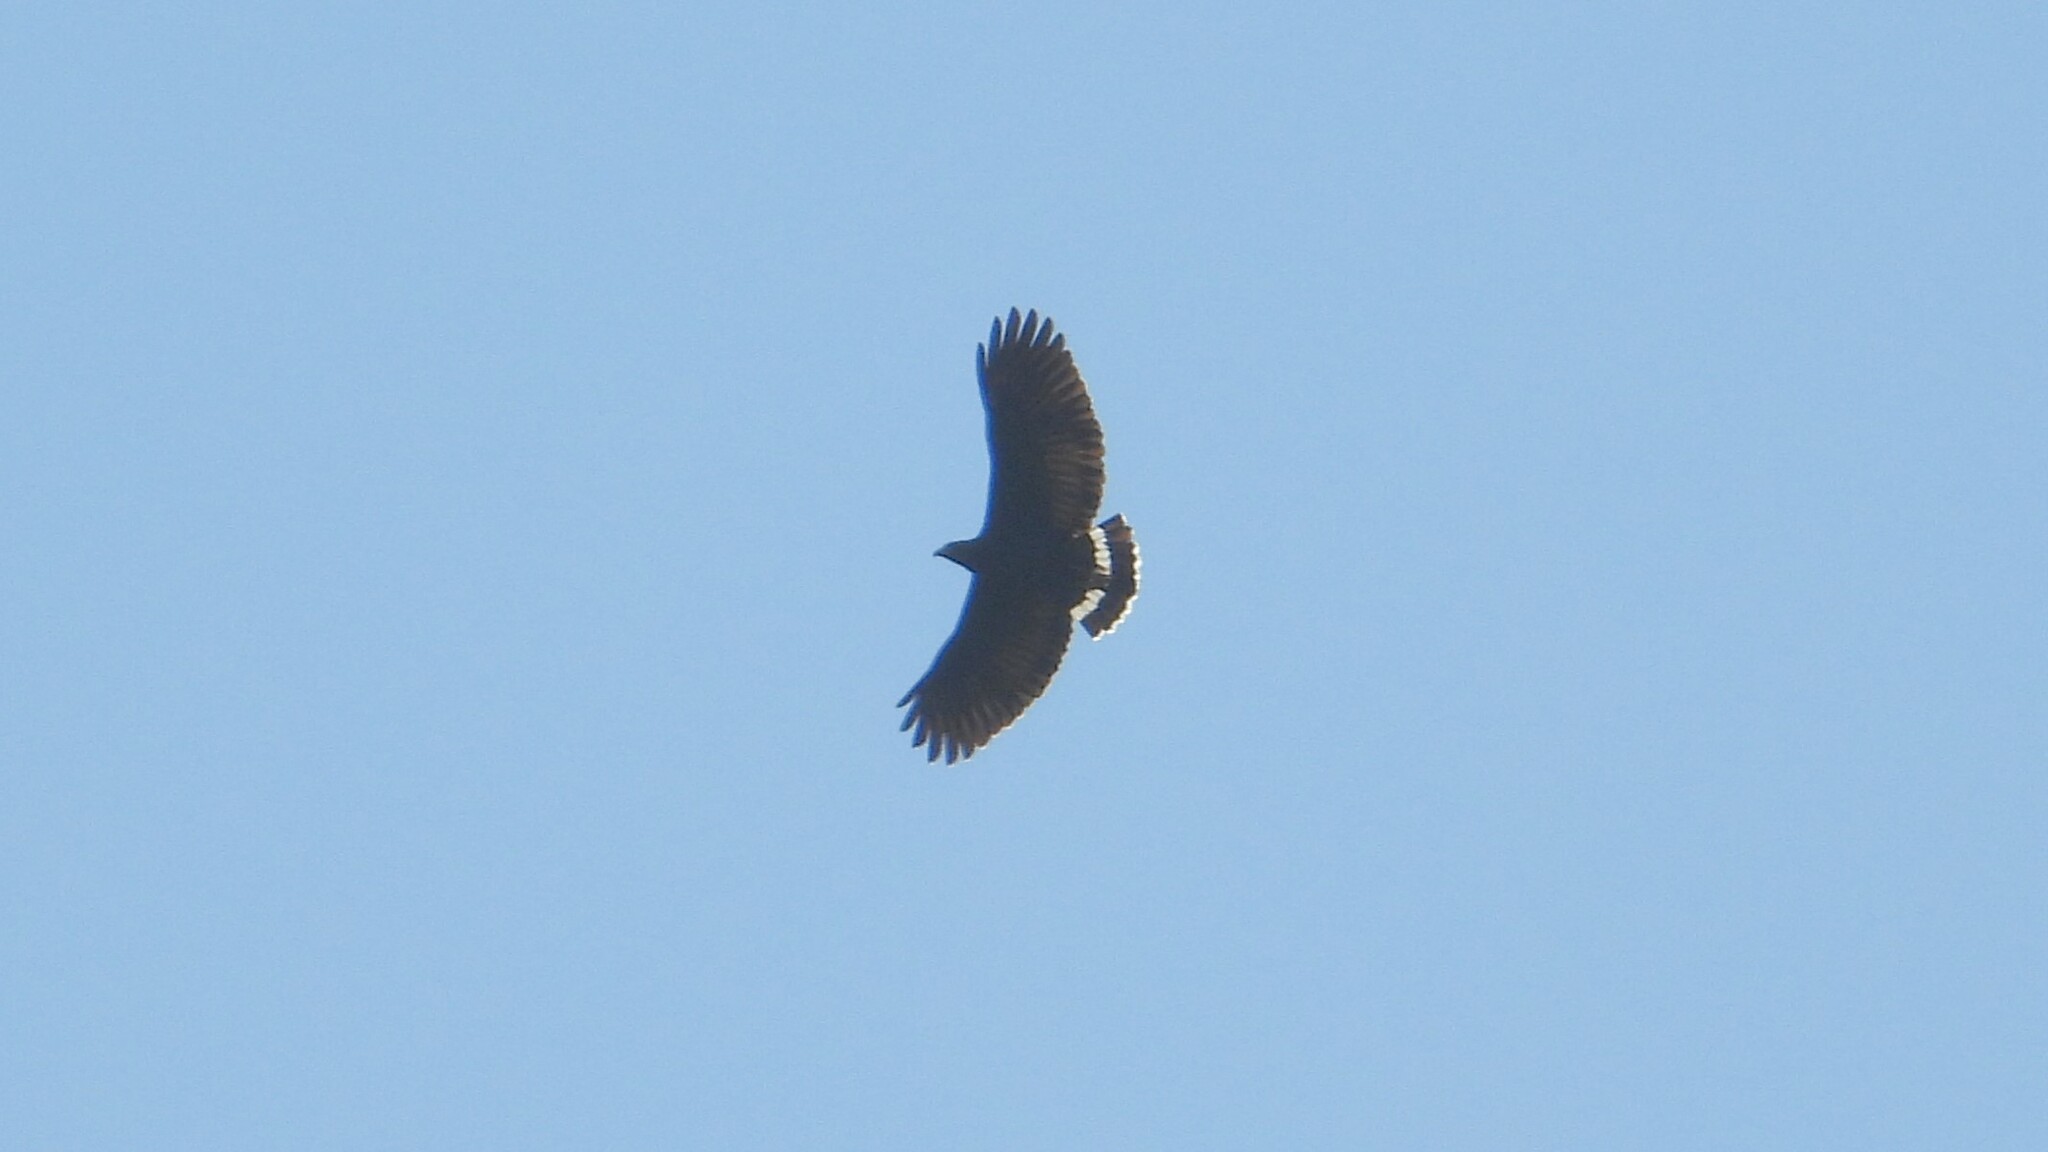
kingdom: Animalia
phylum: Chordata
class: Aves
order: Accipitriformes
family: Accipitridae
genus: Buteogallus
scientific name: Buteogallus anthracinus
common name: Common black hawk
